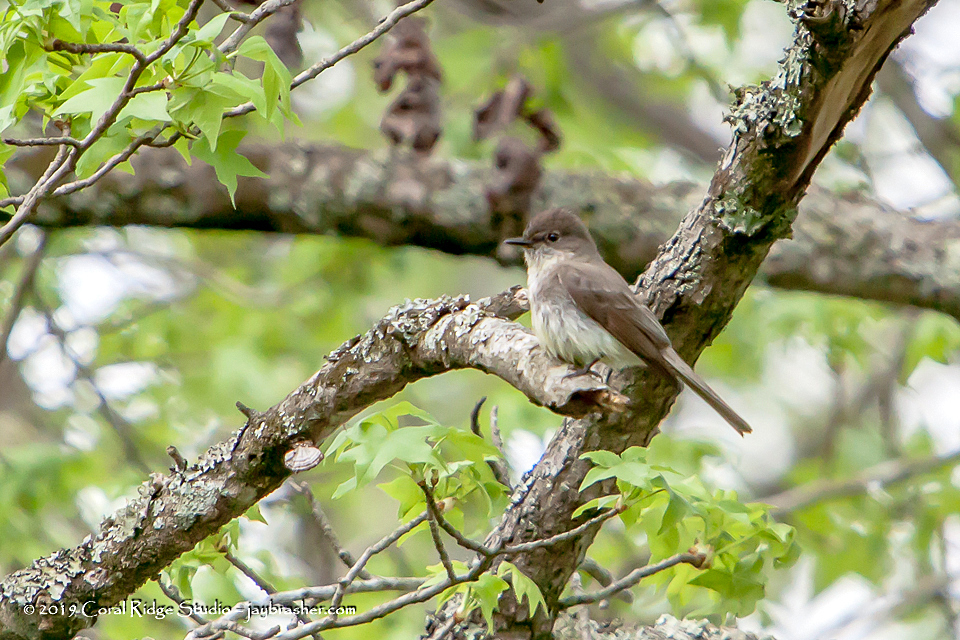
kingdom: Animalia
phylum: Chordata
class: Aves
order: Passeriformes
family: Tyrannidae
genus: Sayornis
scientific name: Sayornis phoebe
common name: Eastern phoebe
